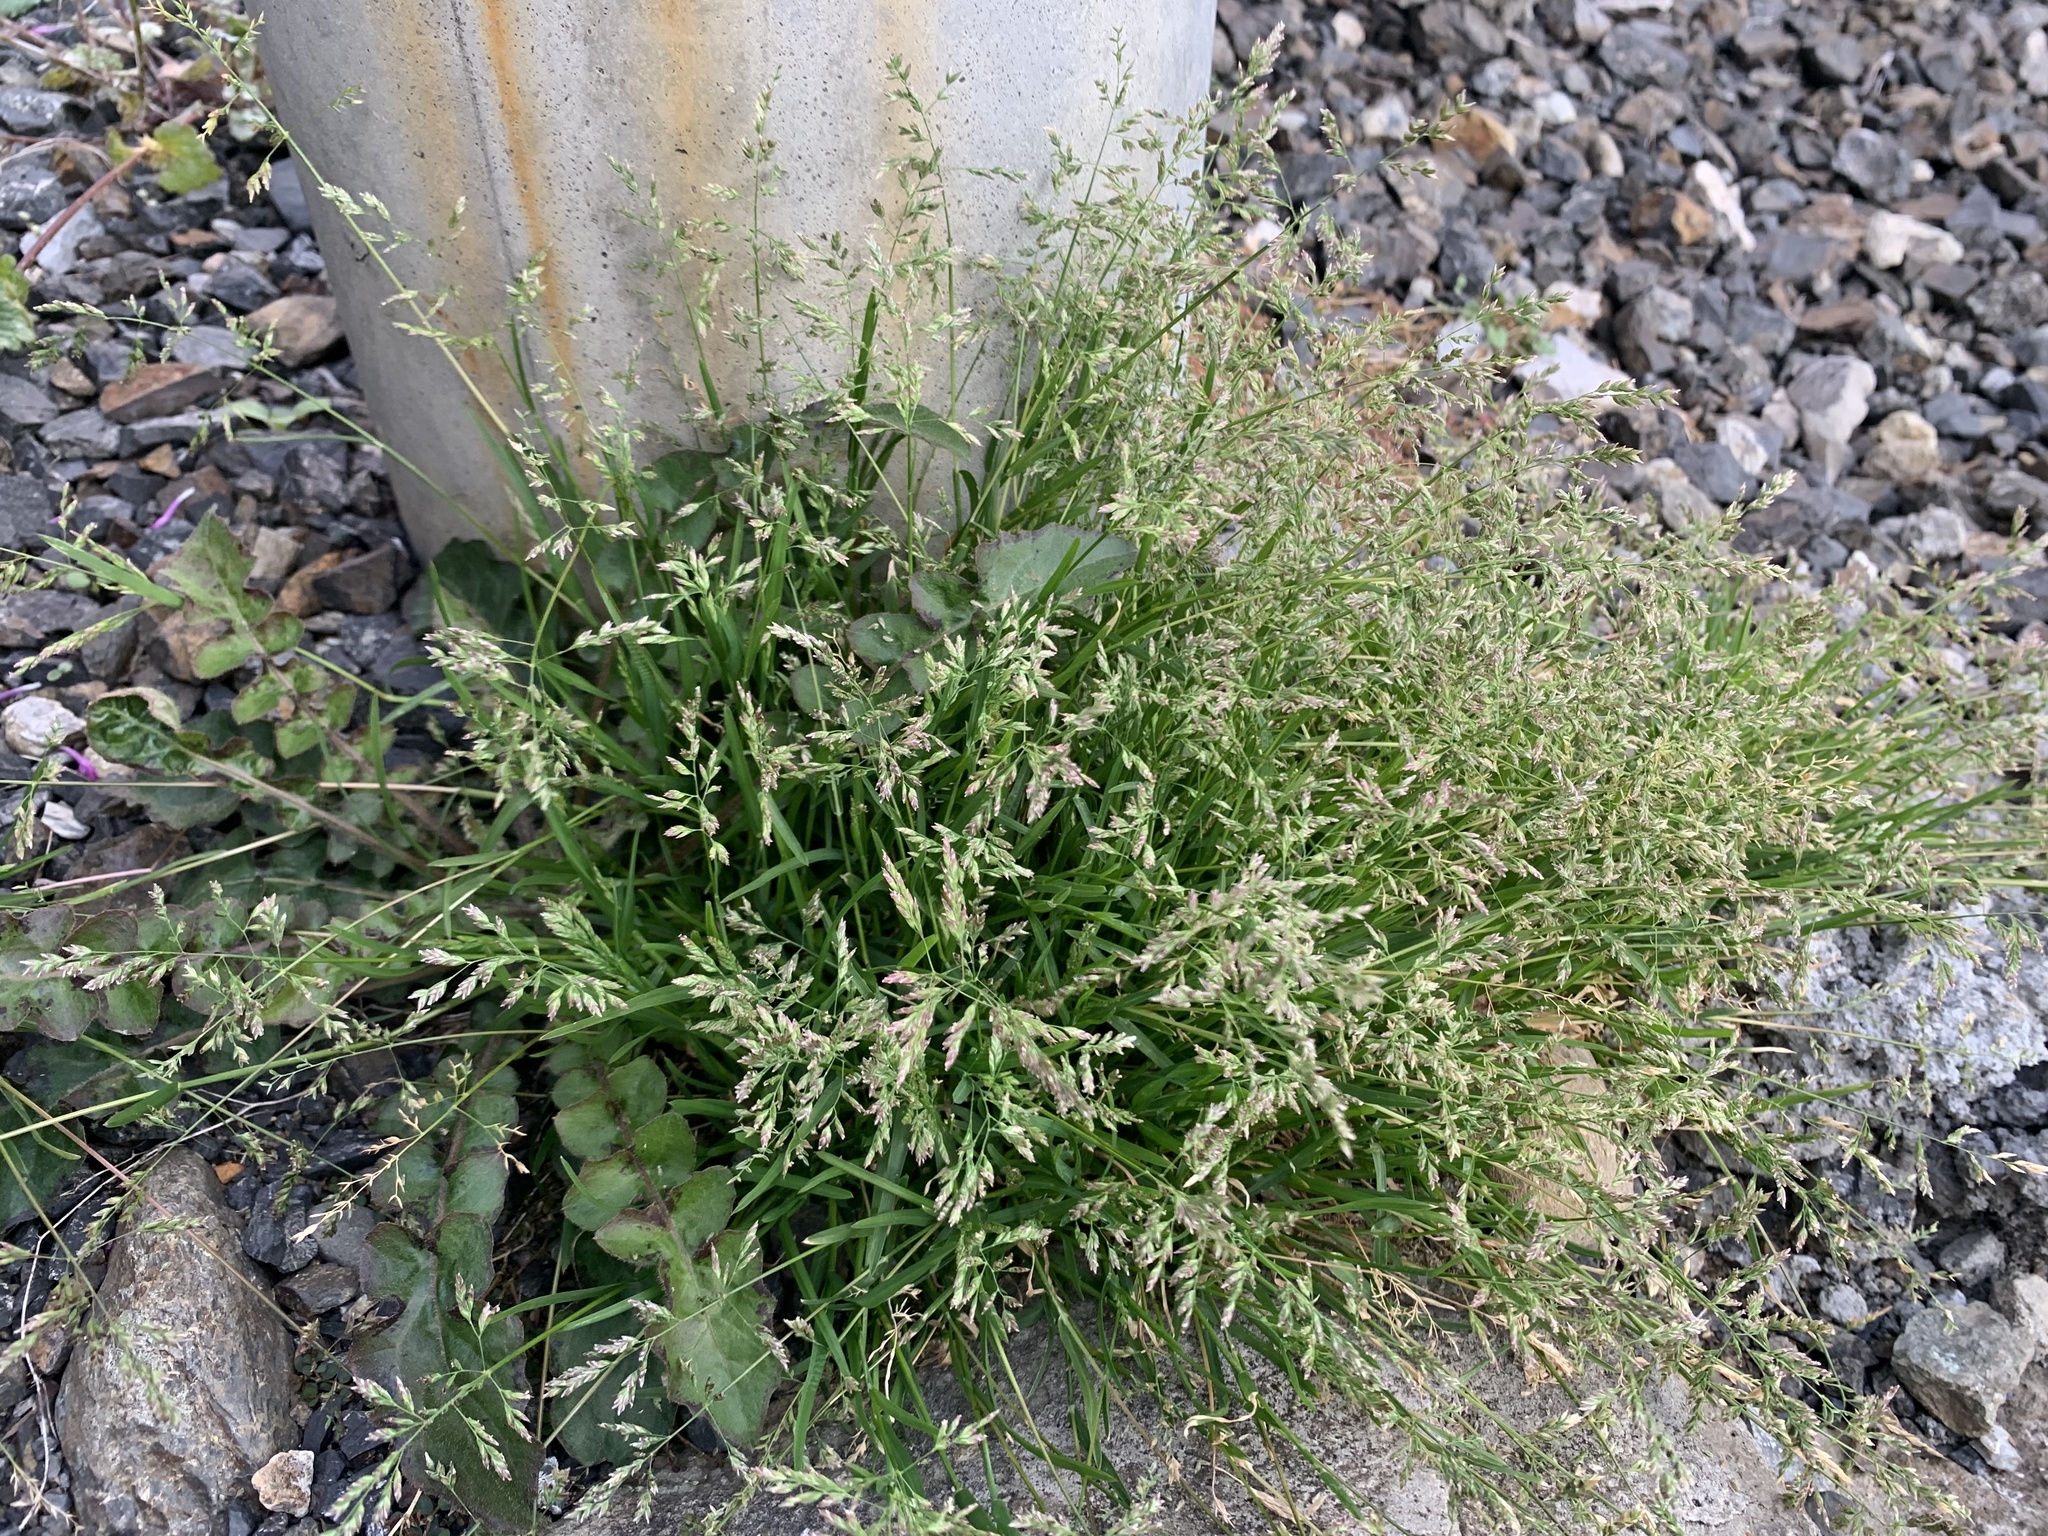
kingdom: Plantae
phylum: Tracheophyta
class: Liliopsida
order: Poales
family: Poaceae
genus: Poa
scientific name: Poa annua
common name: Annual bluegrass
